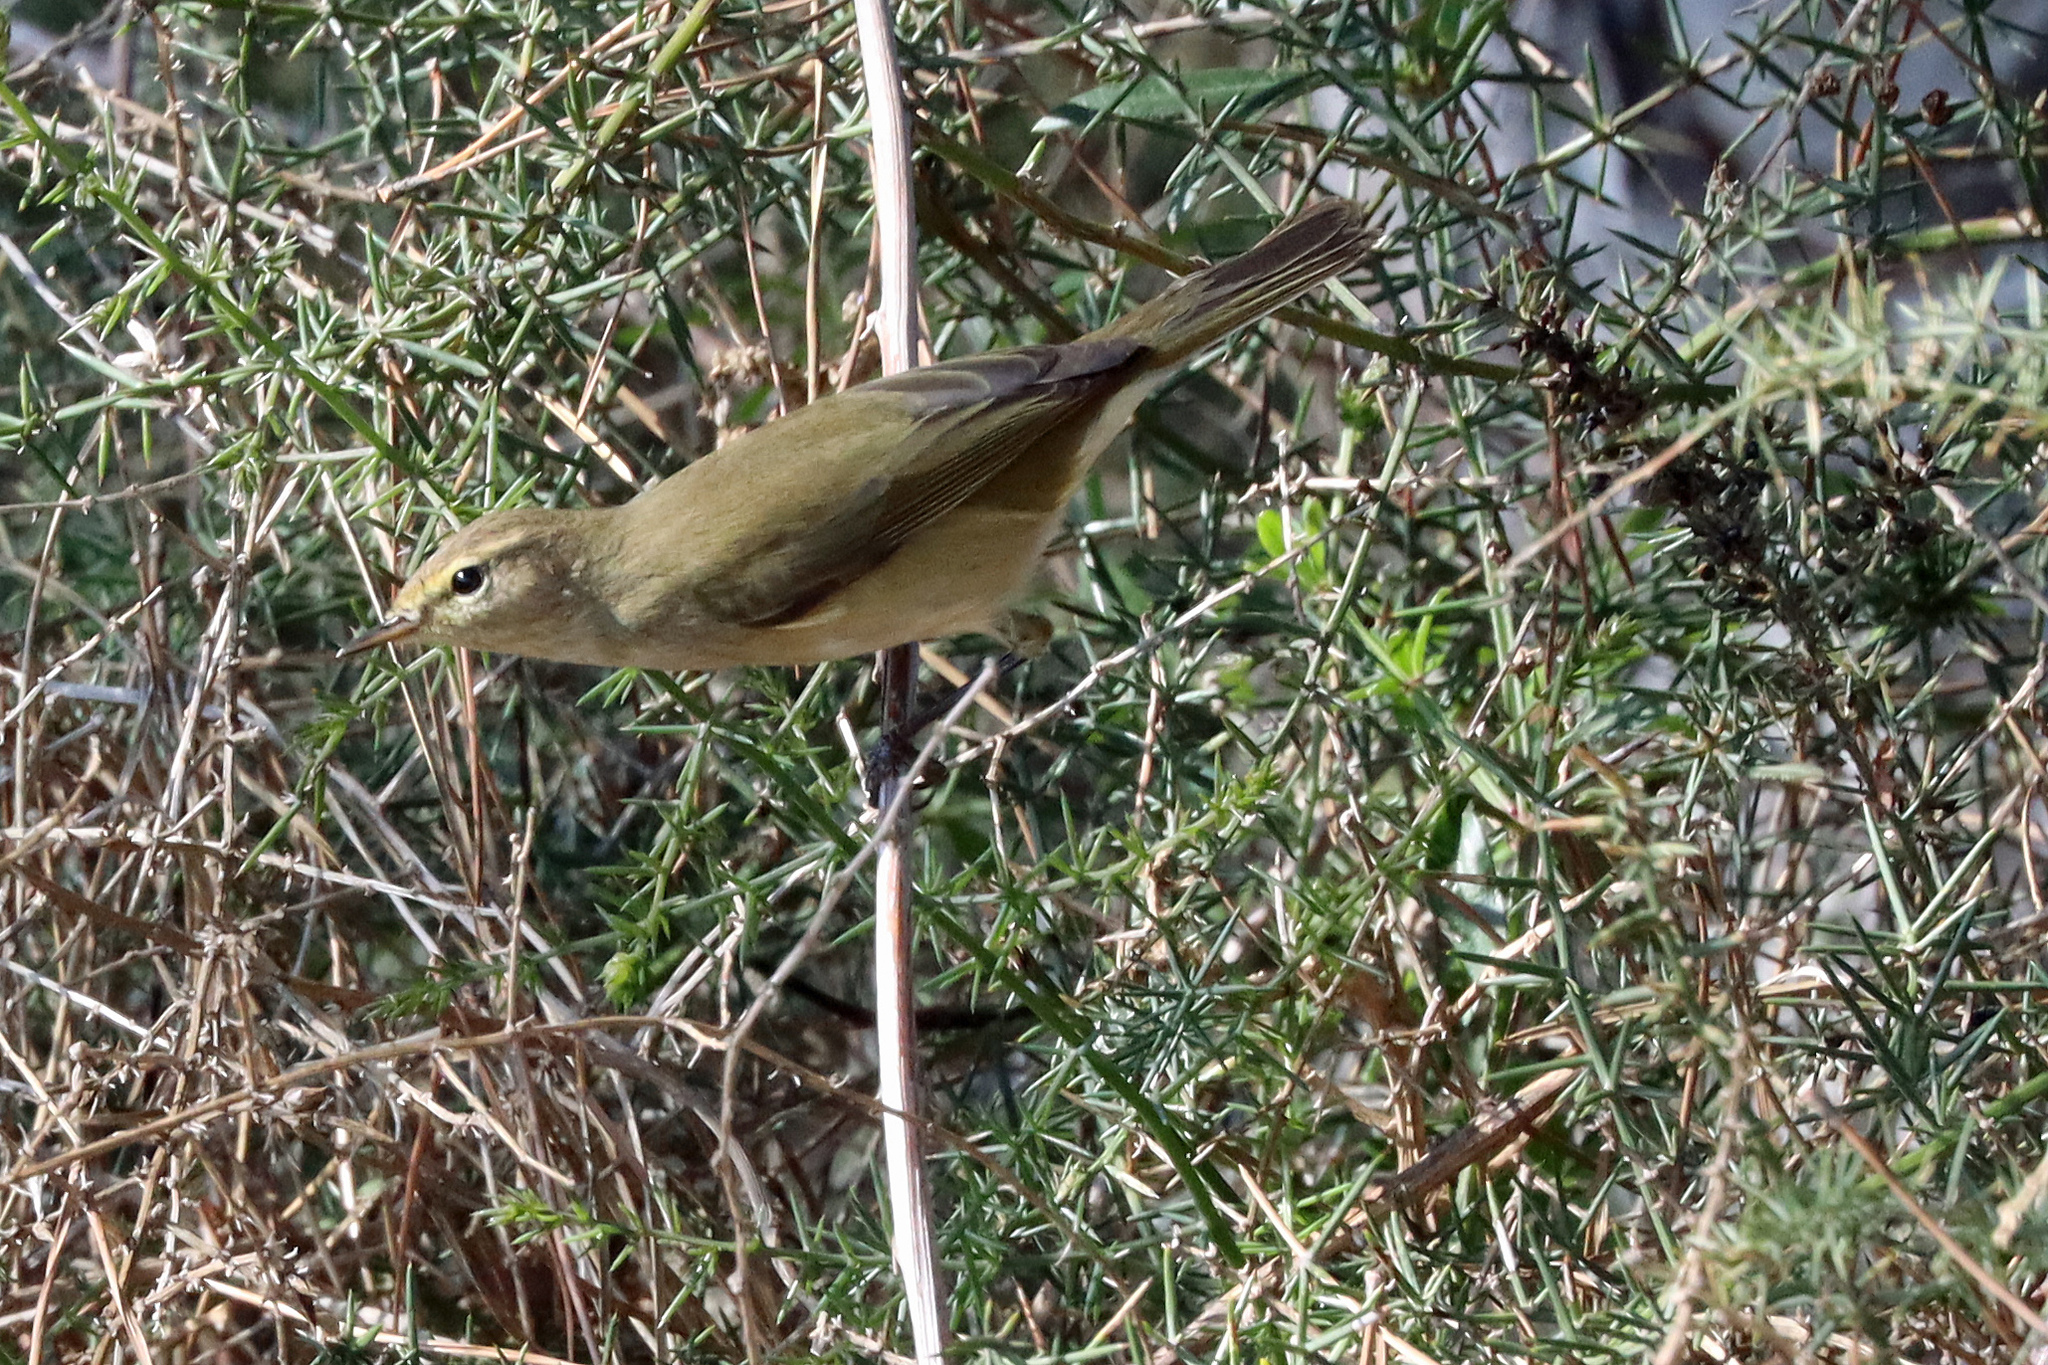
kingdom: Animalia
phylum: Chordata
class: Aves
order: Passeriformes
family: Phylloscopidae
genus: Phylloscopus
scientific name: Phylloscopus collybita
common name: Common chiffchaff
